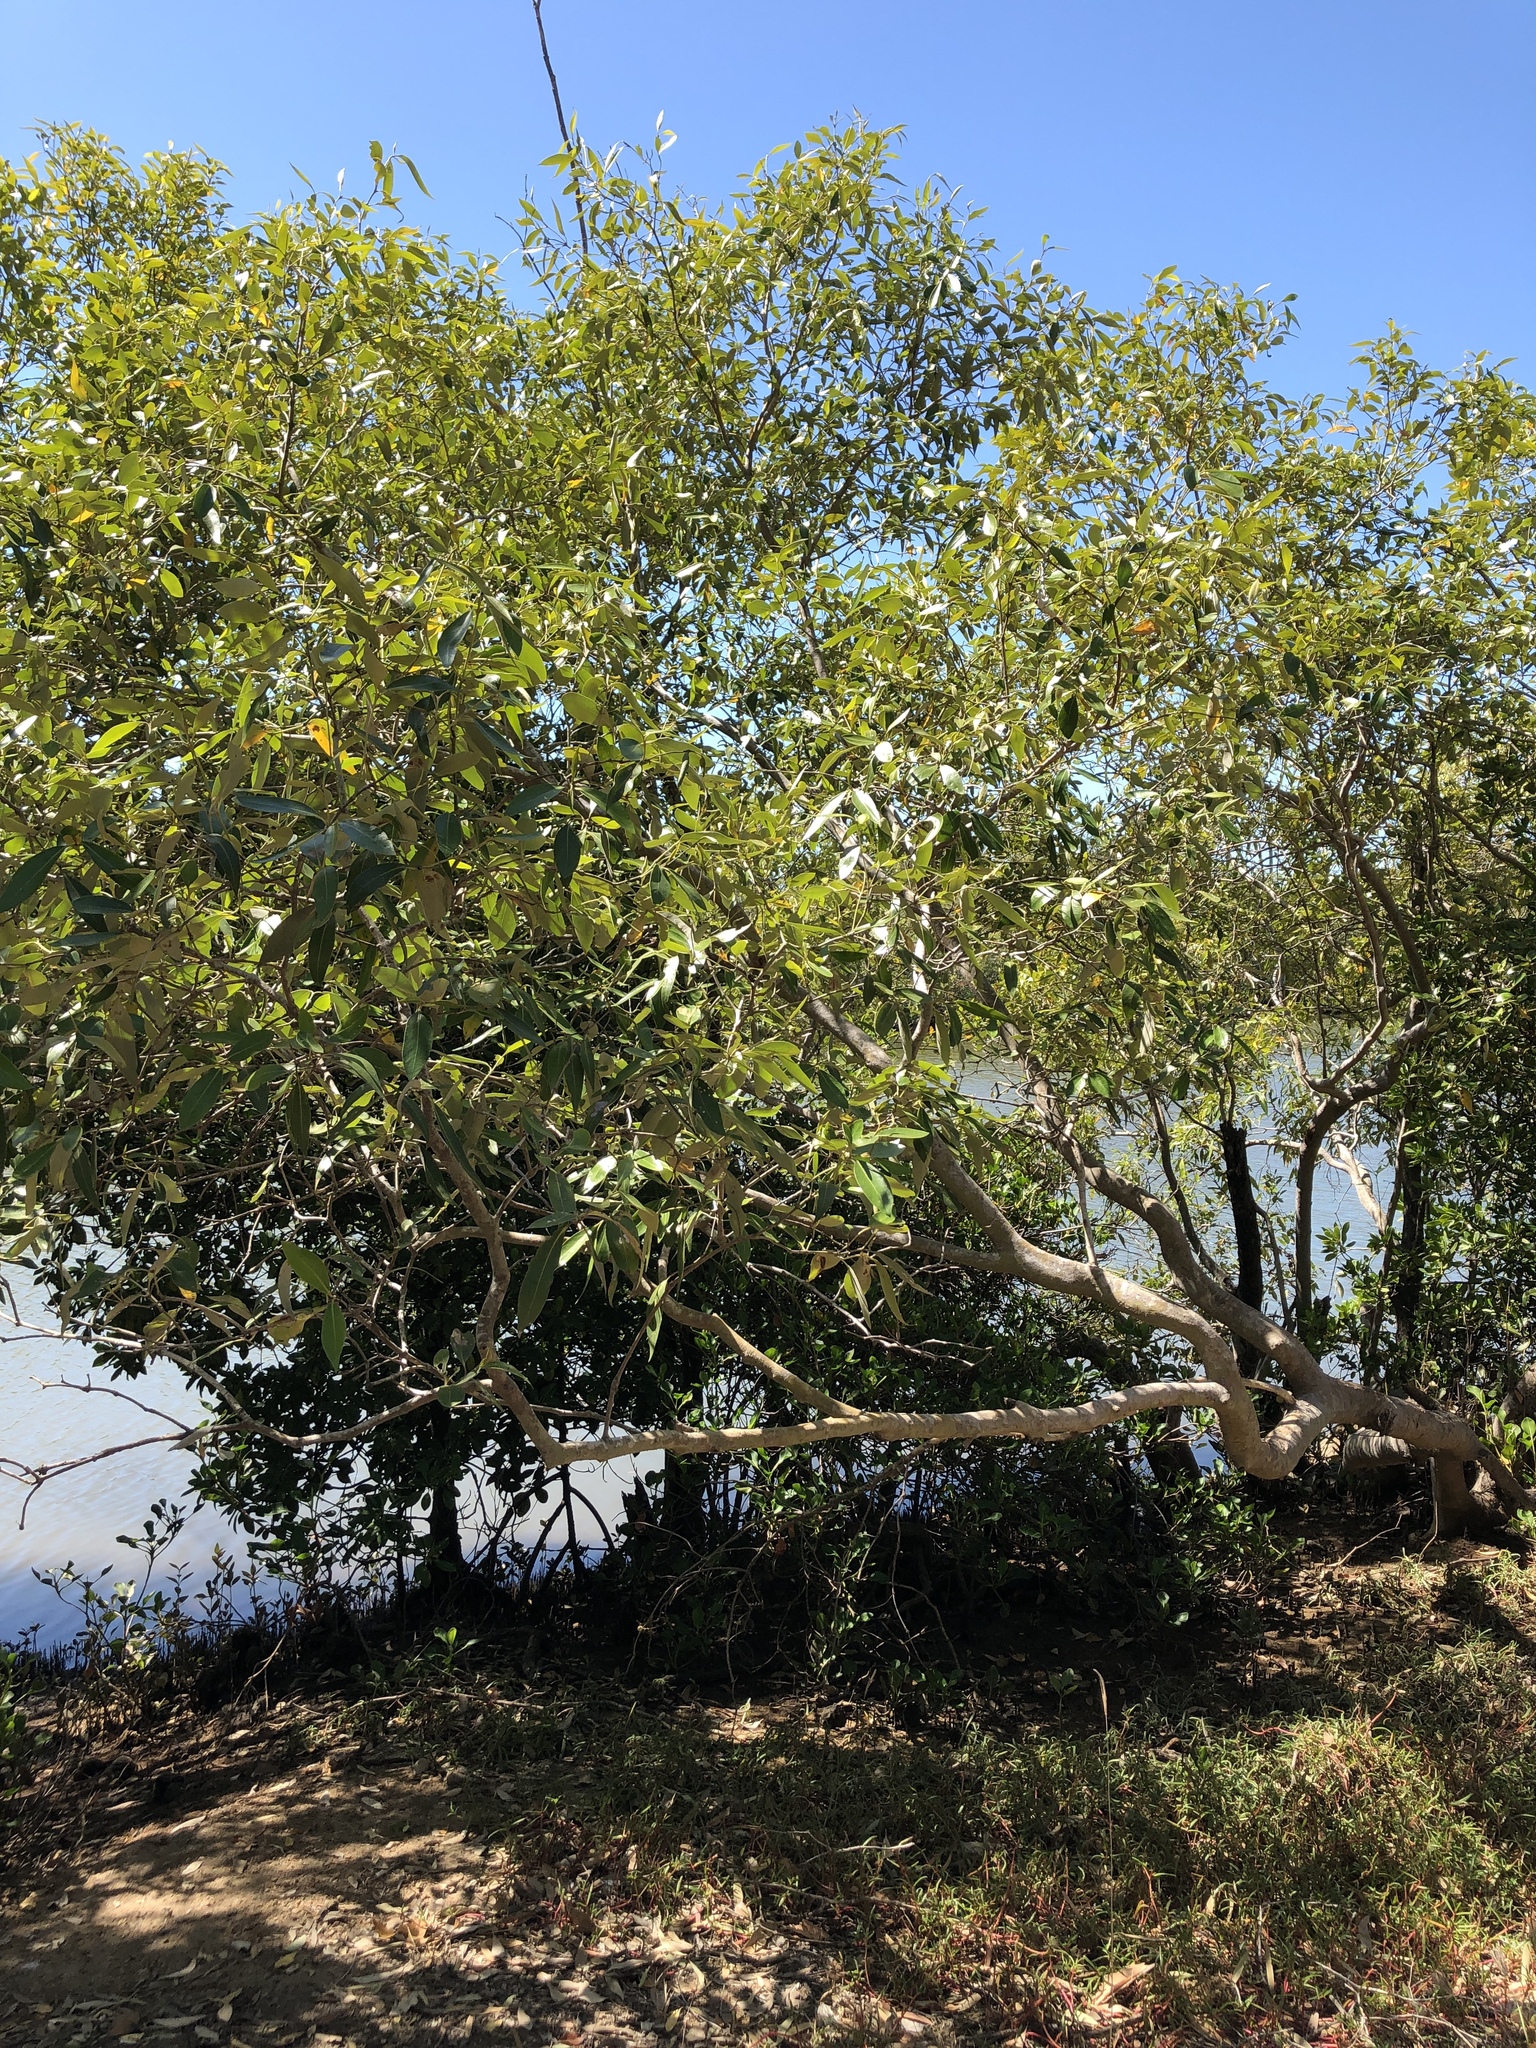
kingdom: Plantae
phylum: Tracheophyta
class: Magnoliopsida
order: Lamiales
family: Acanthaceae
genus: Avicennia
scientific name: Avicennia marina
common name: Gray mangrove
